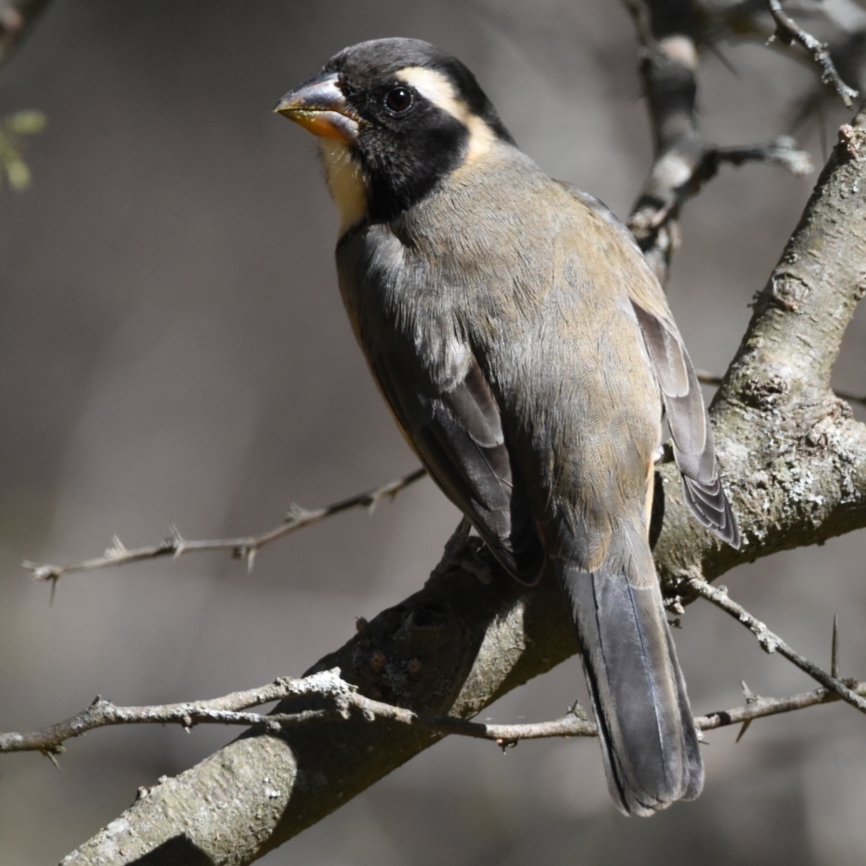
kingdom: Animalia
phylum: Chordata
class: Aves
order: Passeriformes
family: Thraupidae
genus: Saltator
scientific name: Saltator aurantiirostris
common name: Golden-billed saltator
